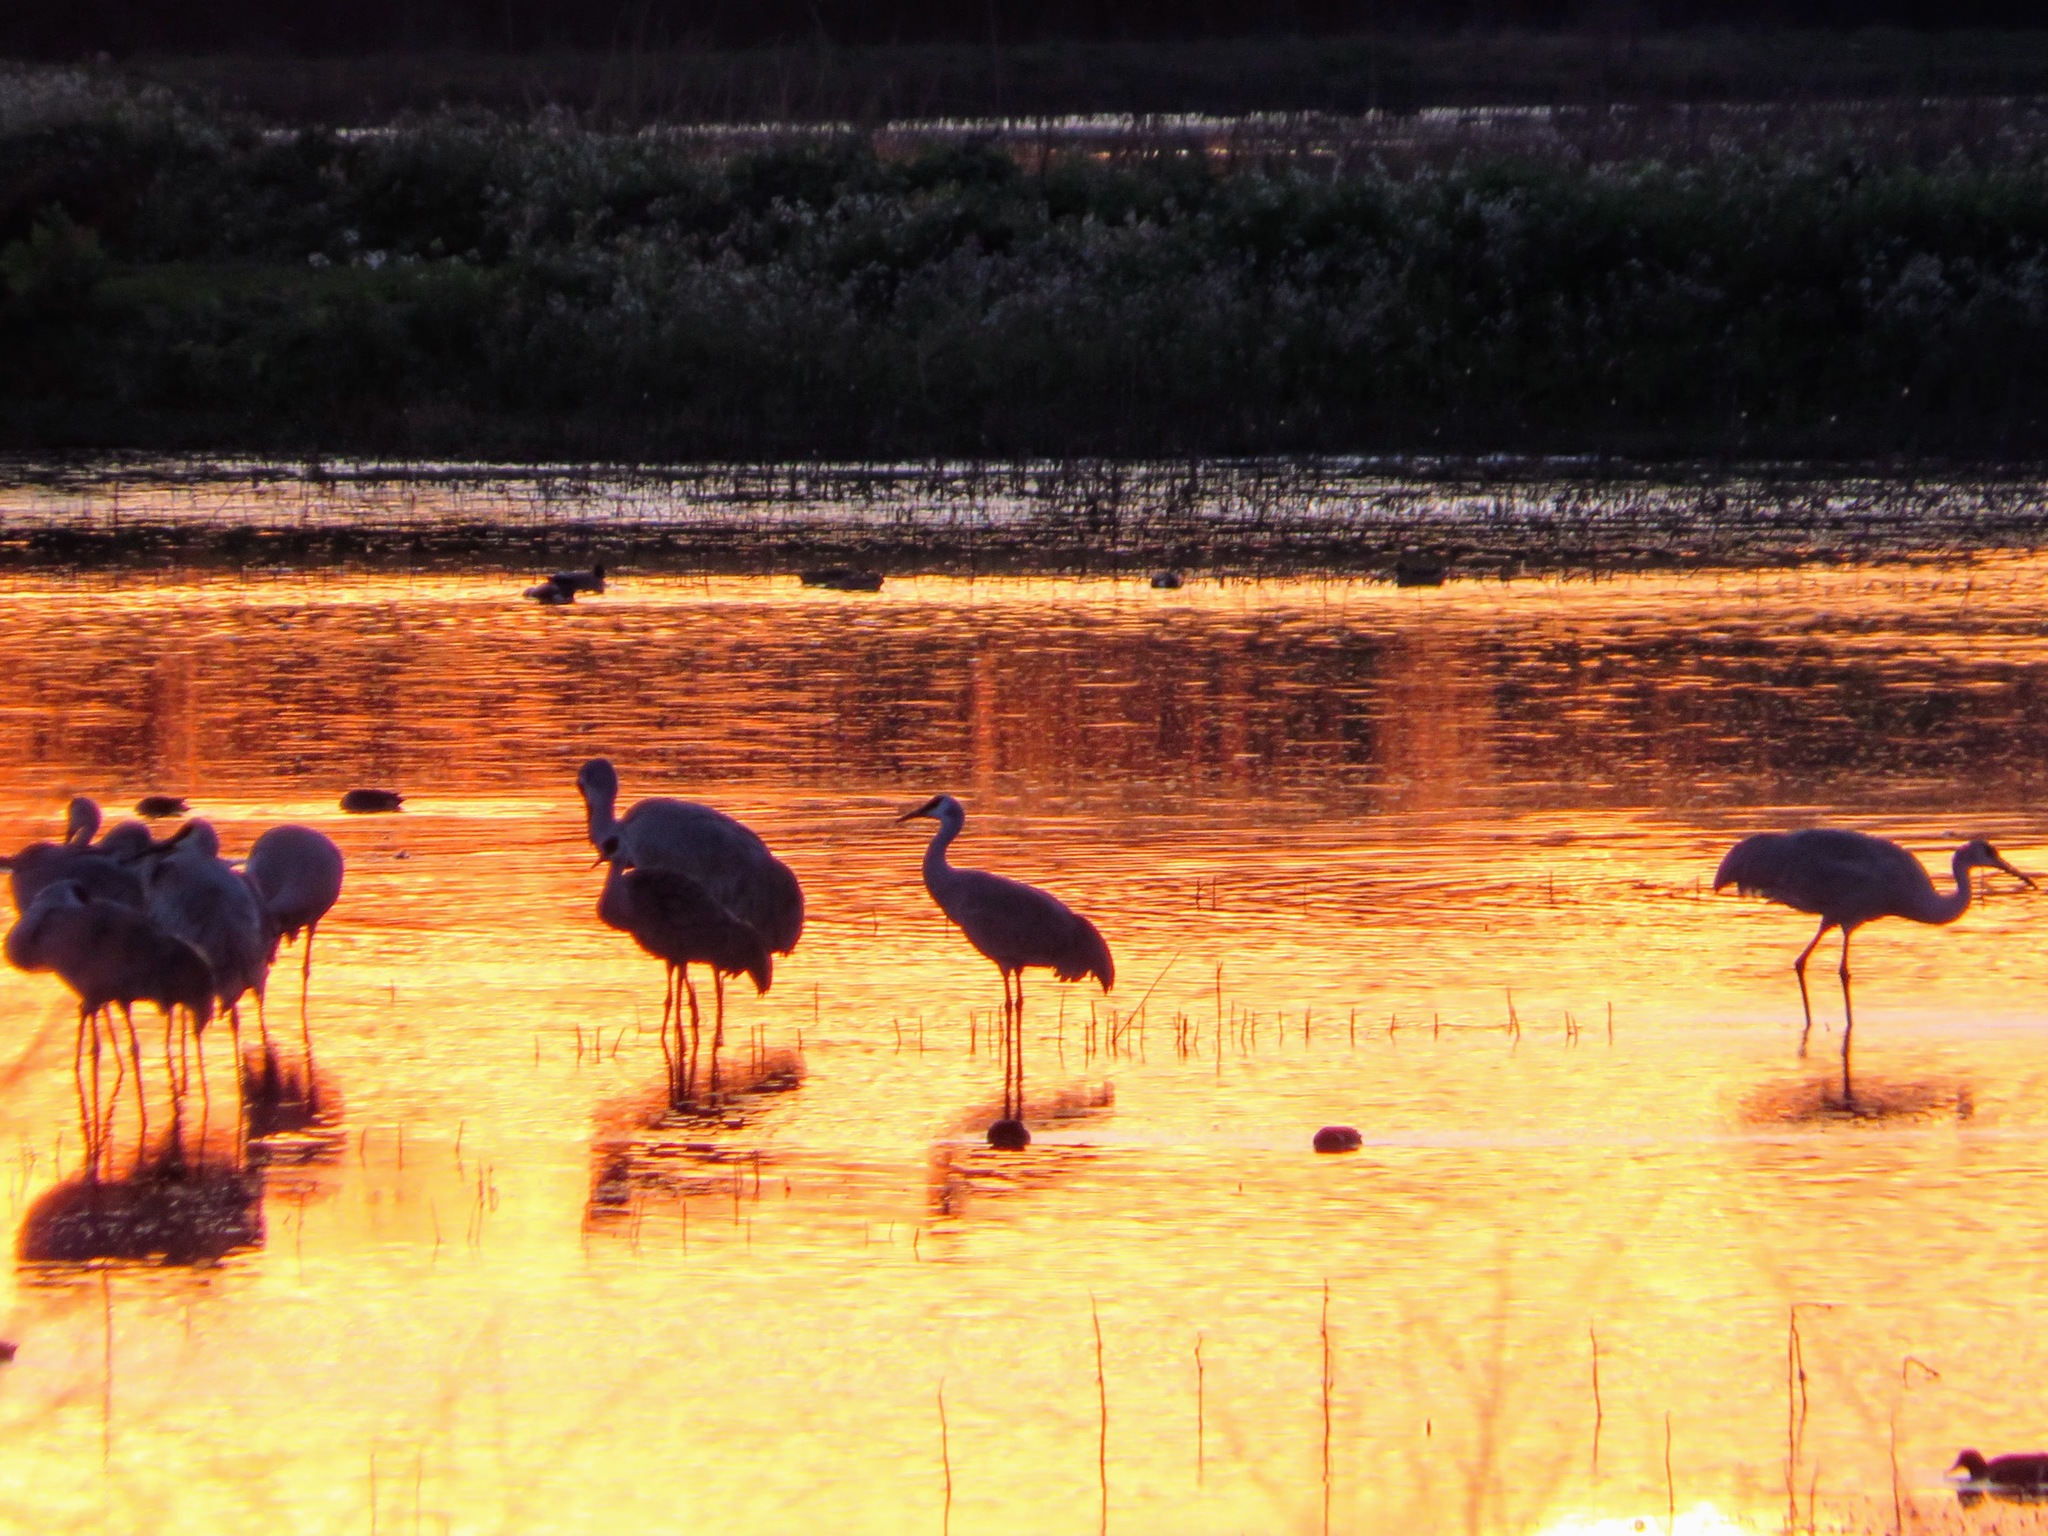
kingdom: Animalia
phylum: Chordata
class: Aves
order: Gruiformes
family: Gruidae
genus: Grus
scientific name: Grus canadensis
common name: Sandhill crane
